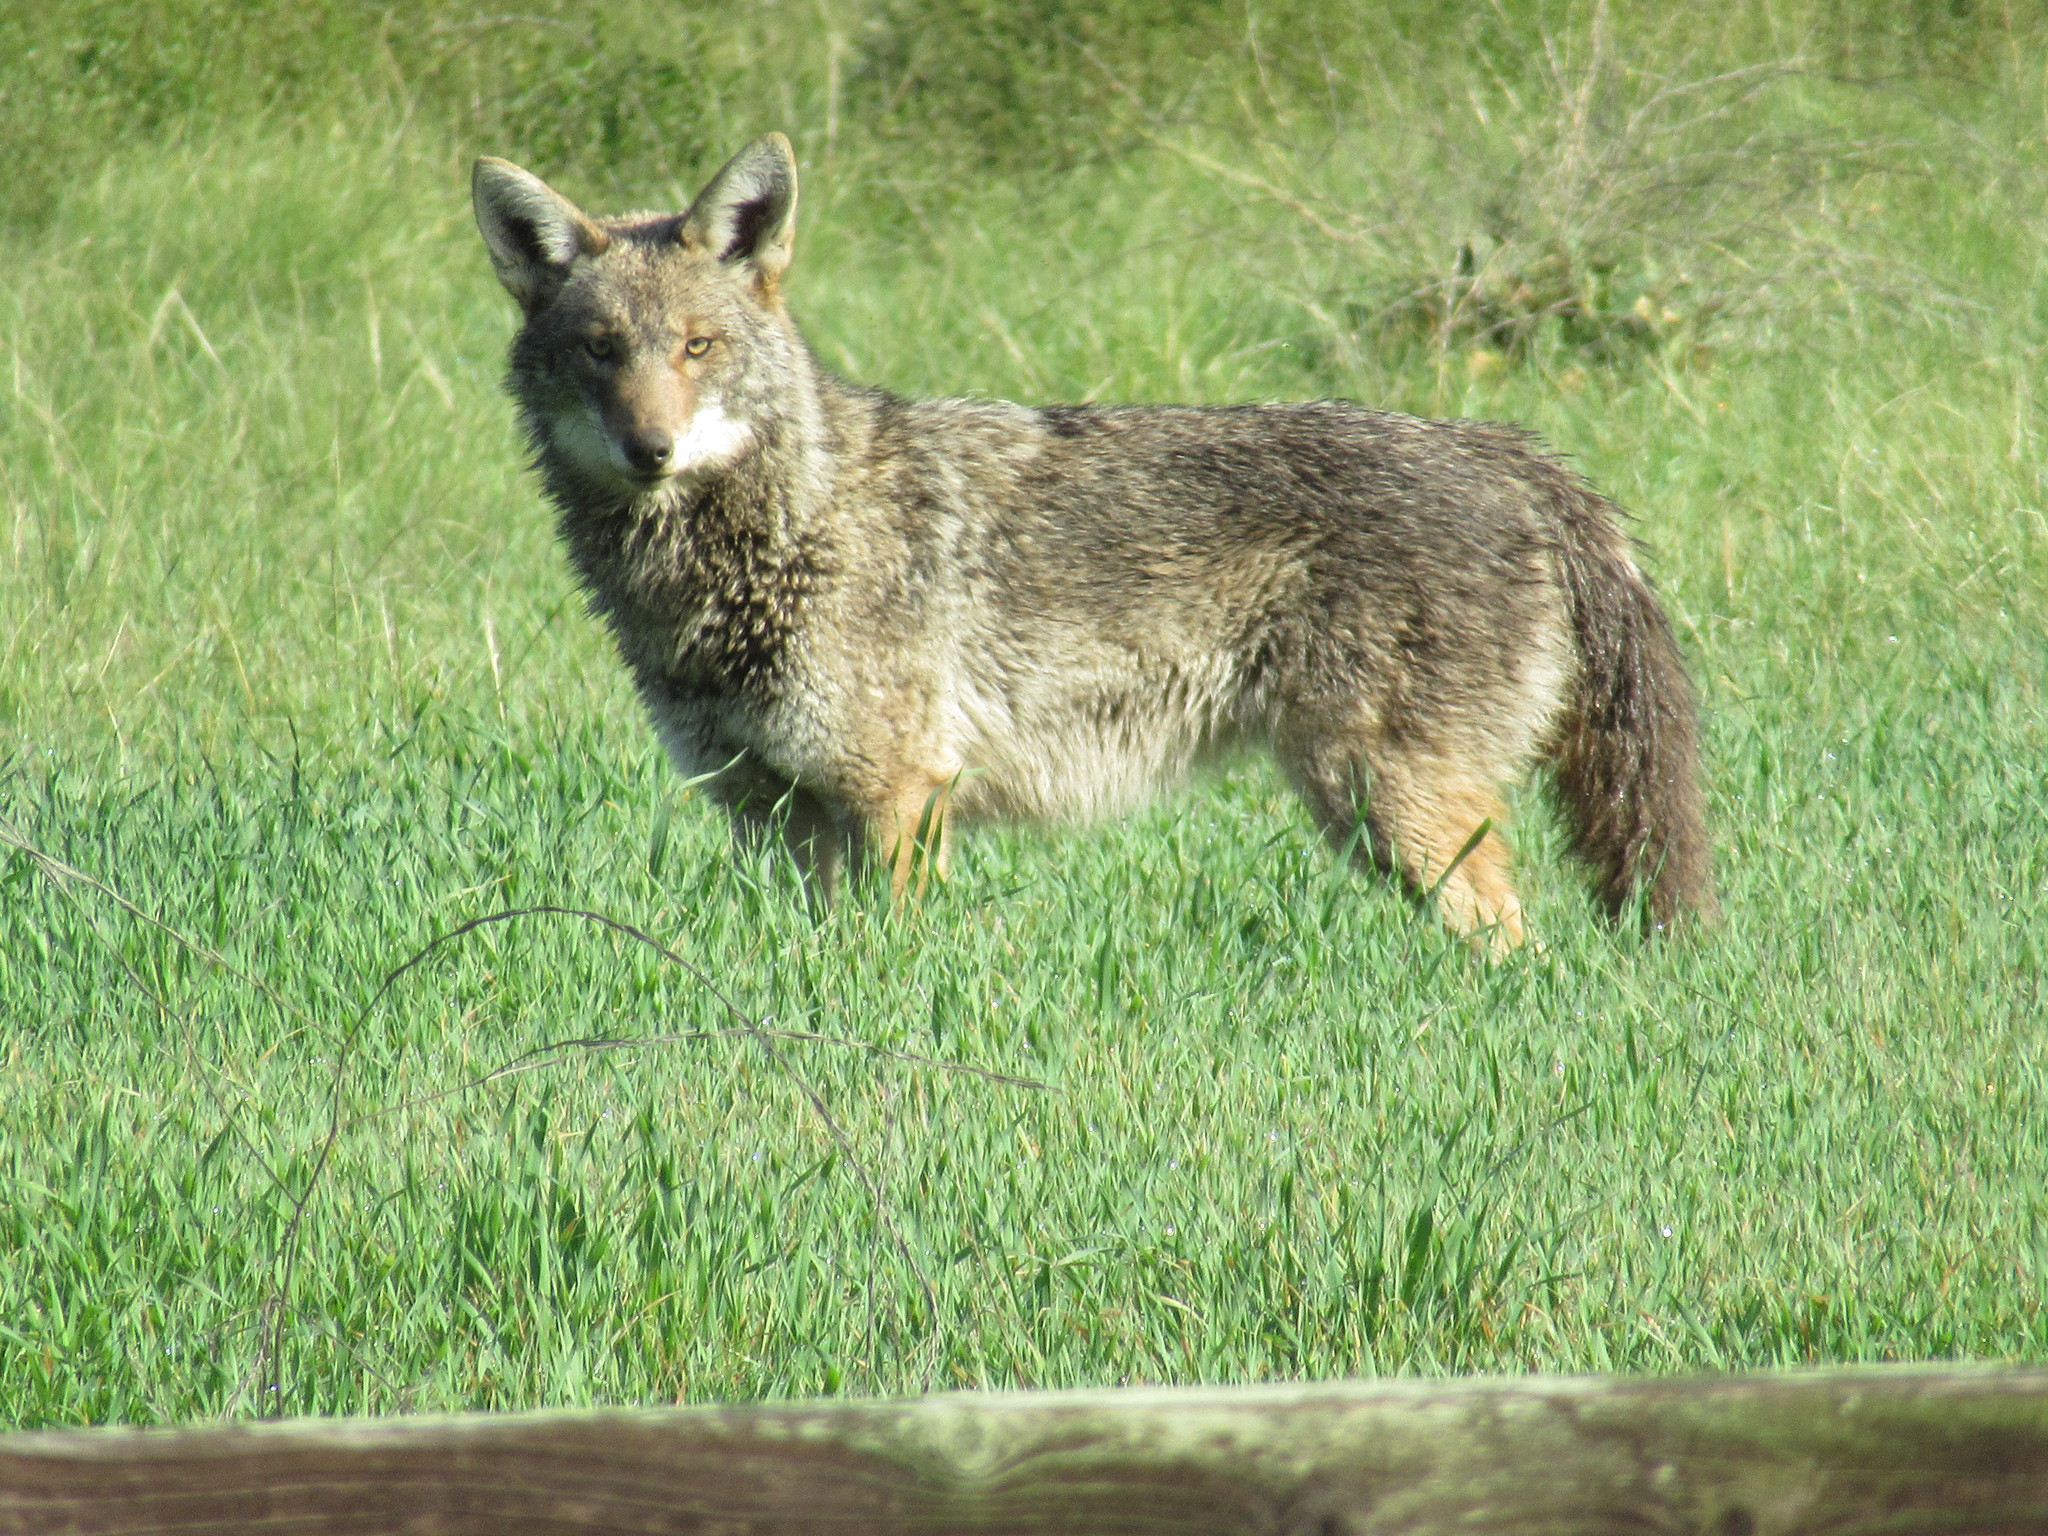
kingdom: Animalia
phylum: Chordata
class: Mammalia
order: Carnivora
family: Canidae
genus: Canis
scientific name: Canis latrans
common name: Coyote
